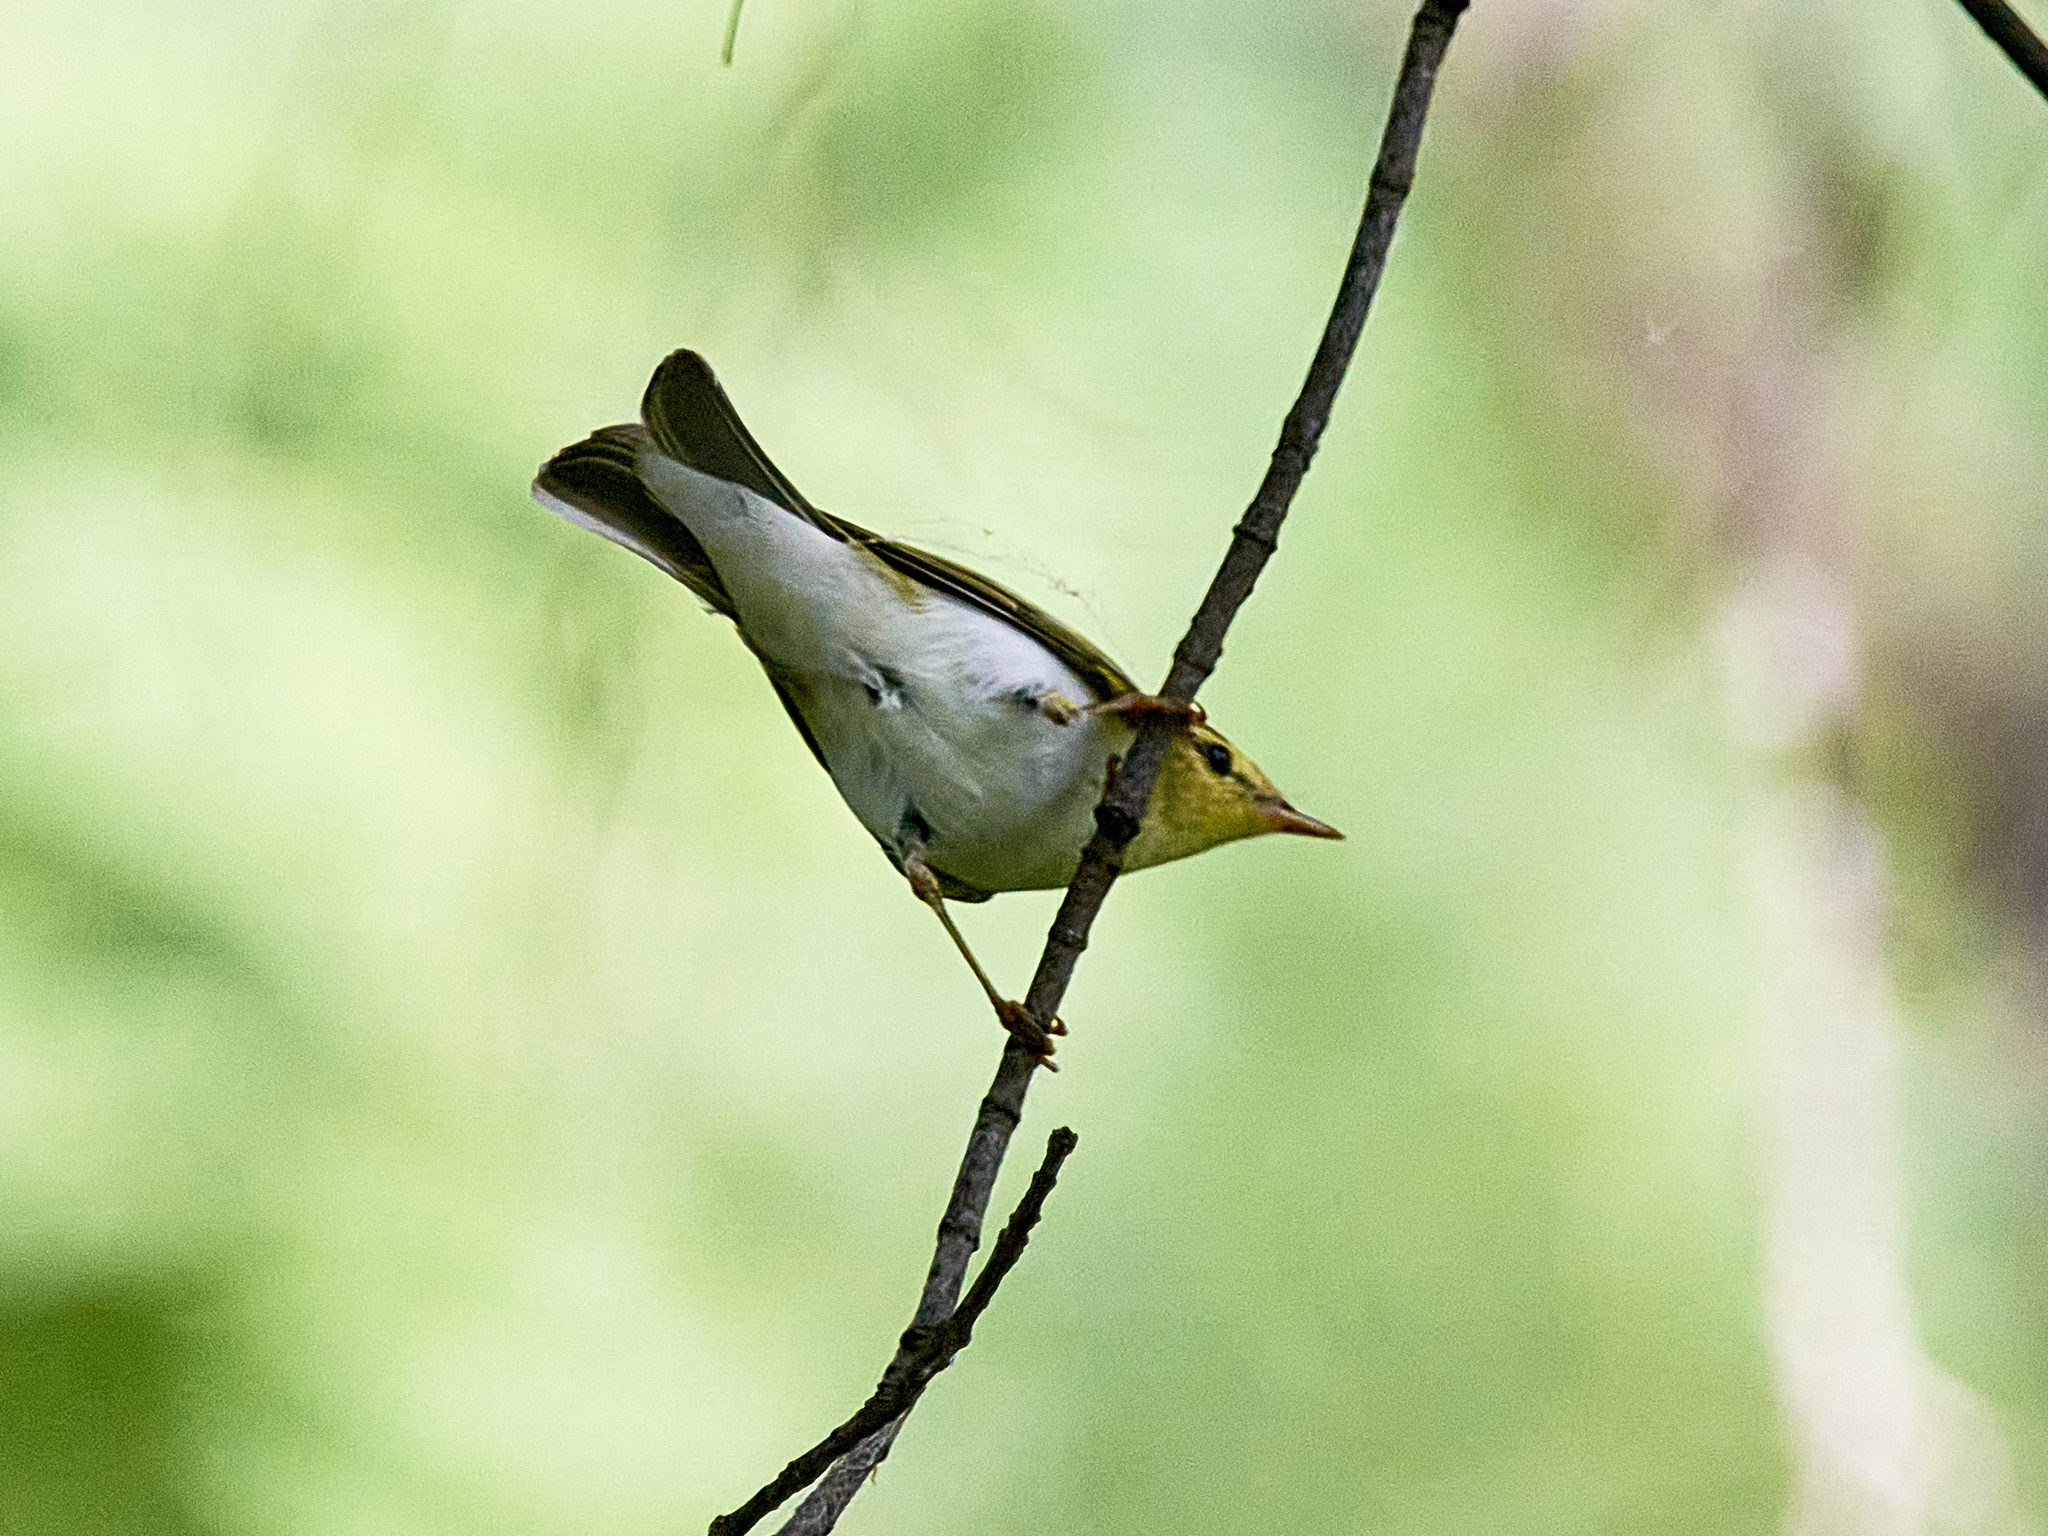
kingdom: Animalia
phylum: Chordata
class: Aves
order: Passeriformes
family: Phylloscopidae
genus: Phylloscopus
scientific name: Phylloscopus sibillatrix
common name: Wood warbler
